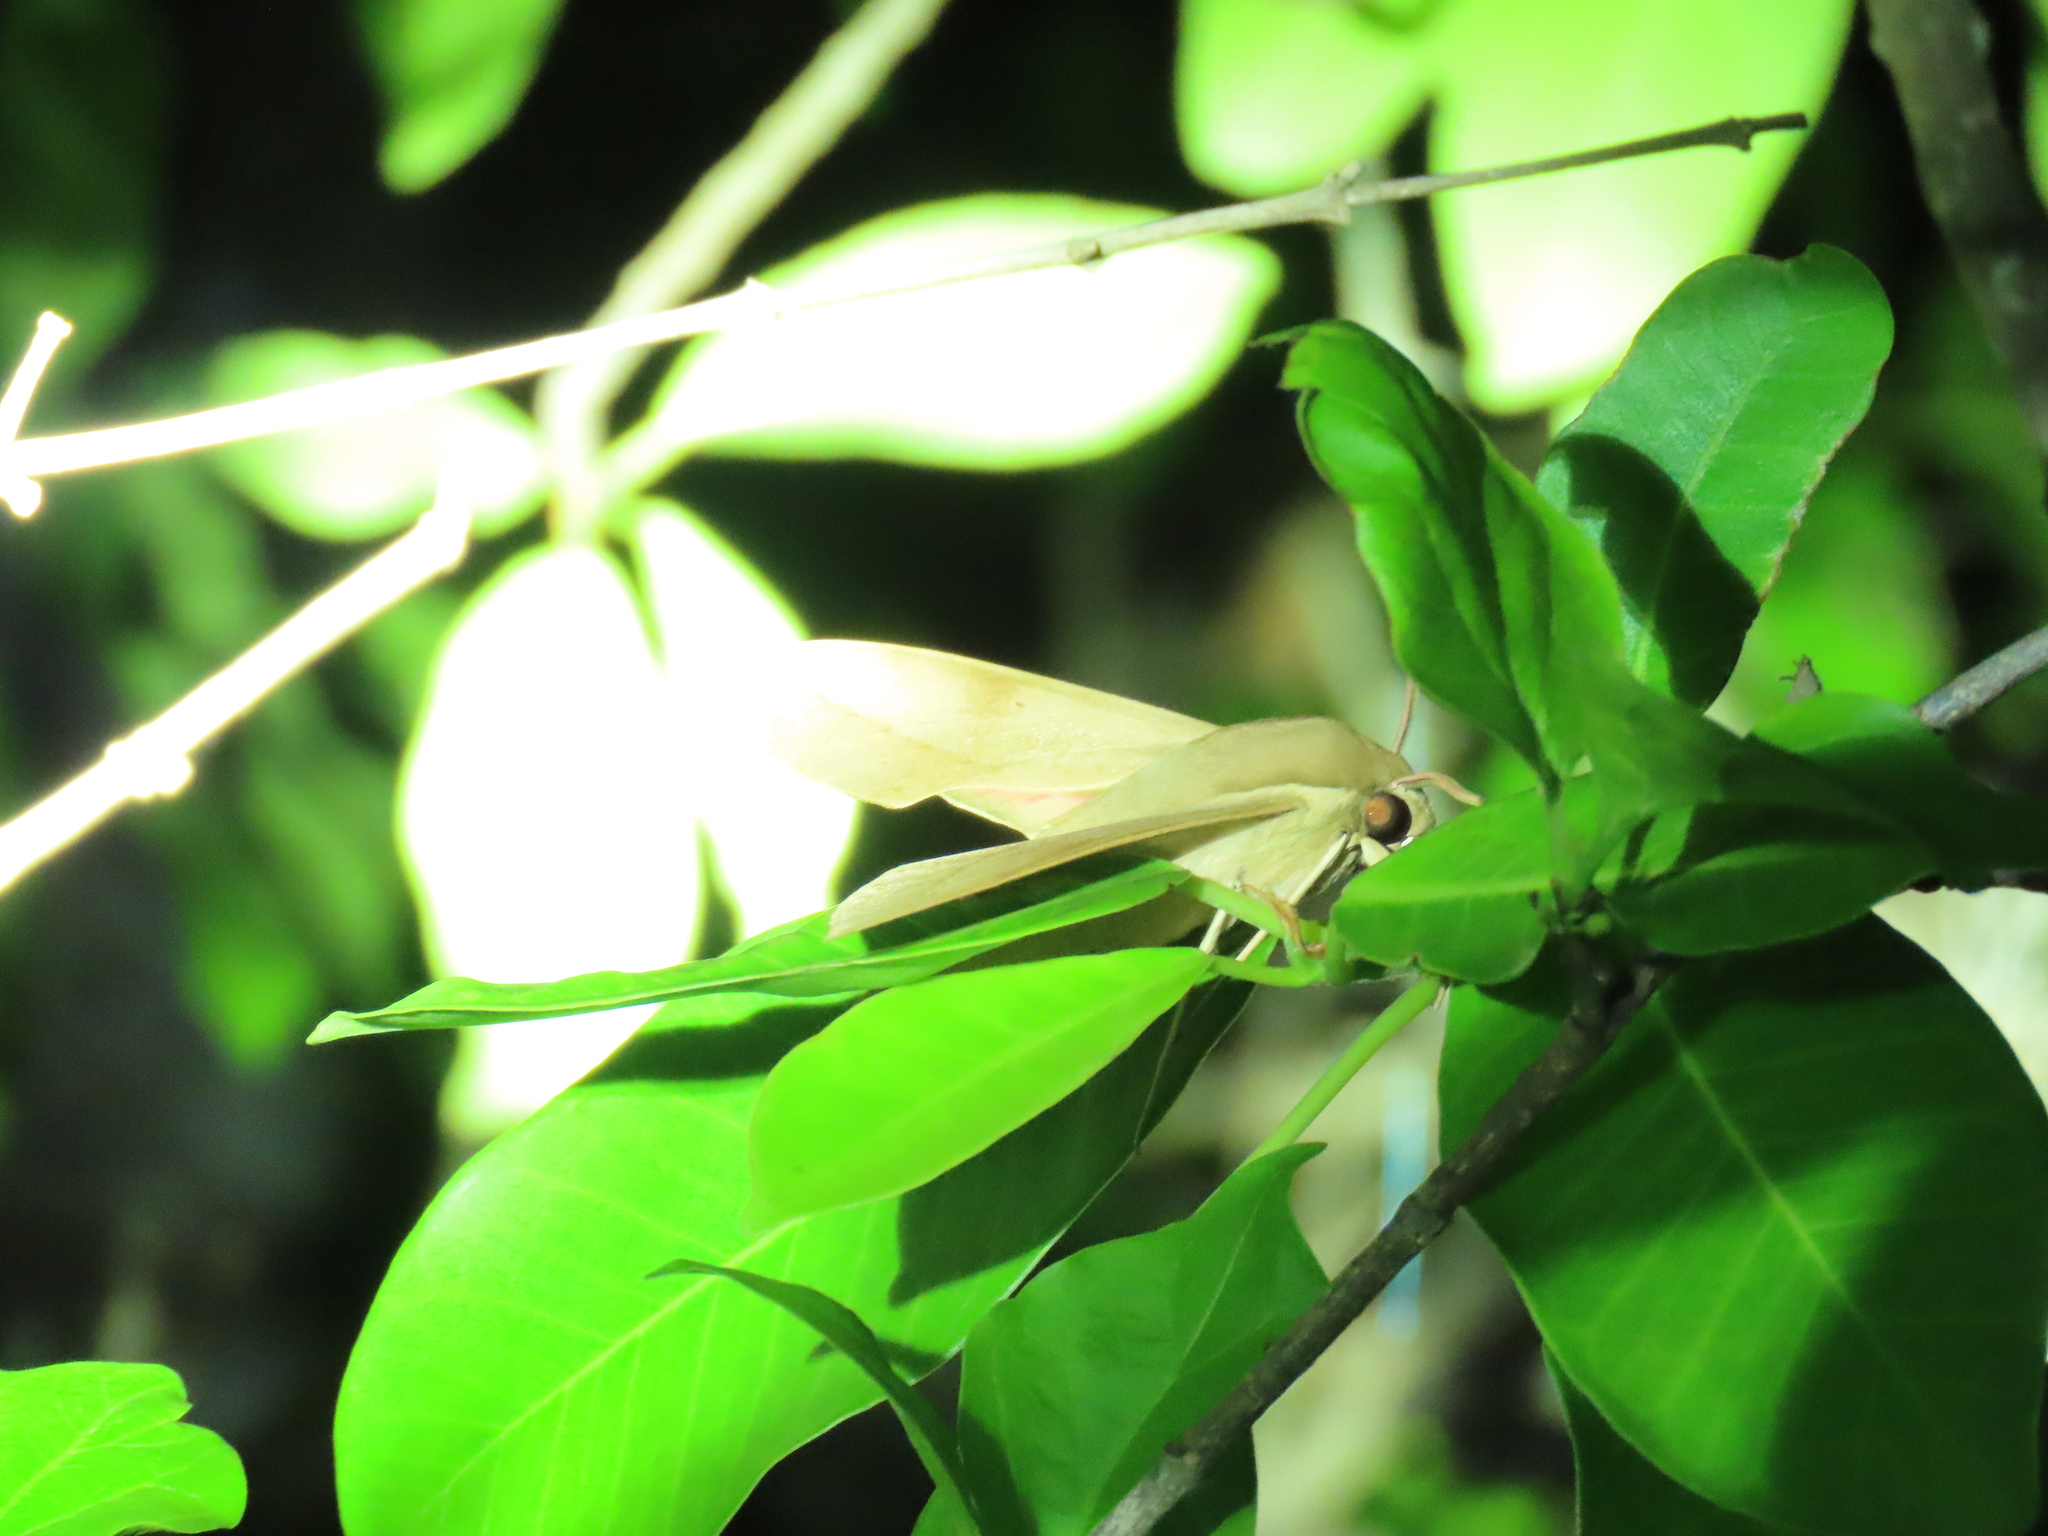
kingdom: Animalia
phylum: Arthropoda
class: Insecta
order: Lepidoptera
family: Sphingidae
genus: Theretra
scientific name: Theretra capensis
